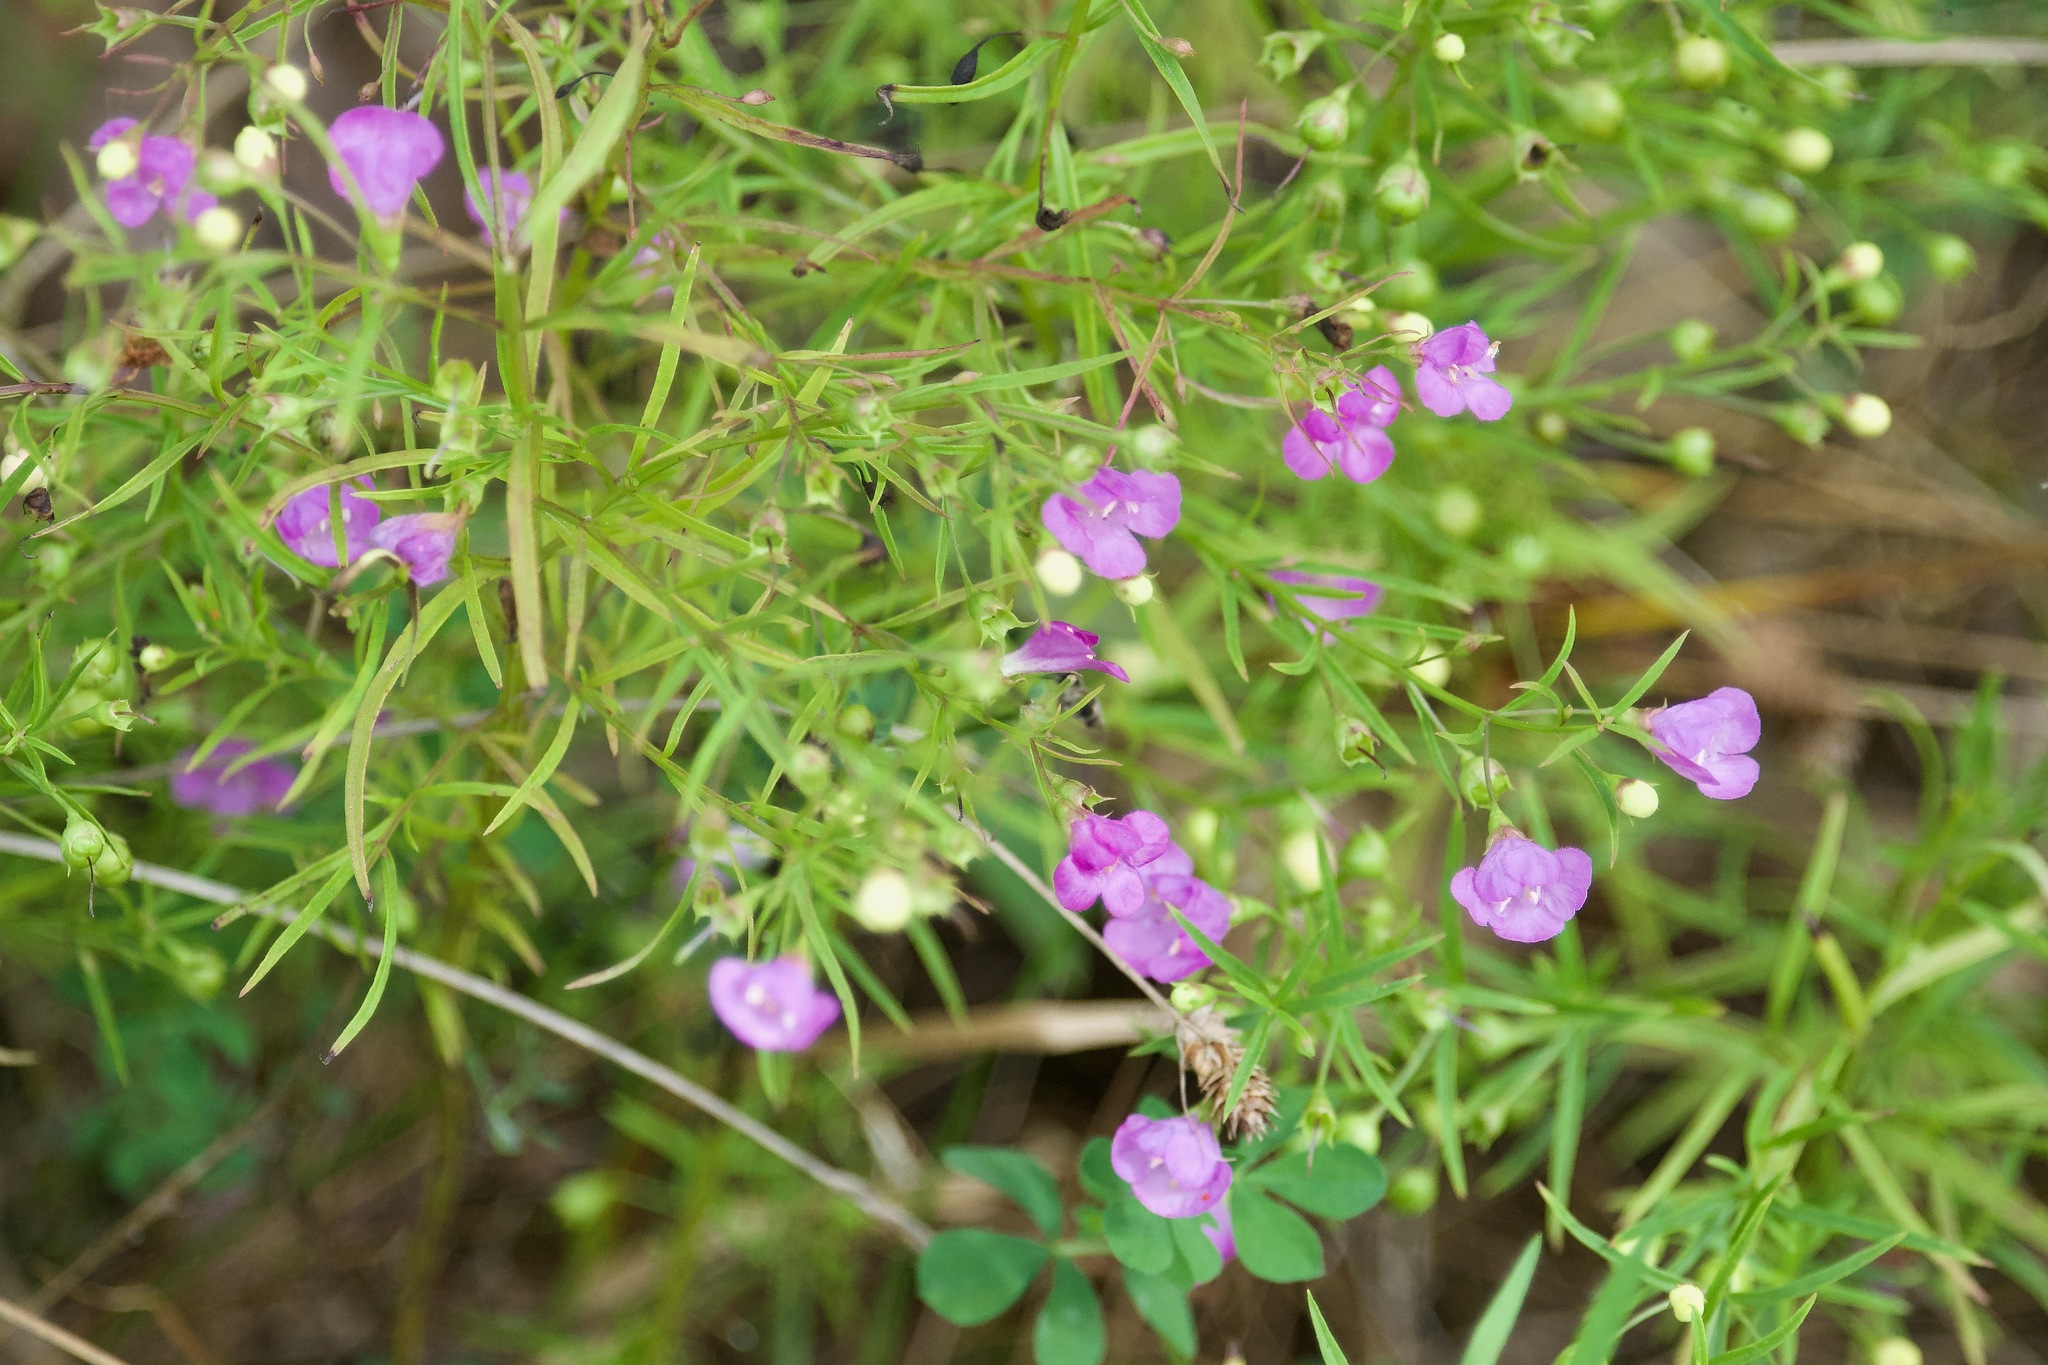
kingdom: Plantae
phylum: Tracheophyta
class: Magnoliopsida
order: Lamiales
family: Orobanchaceae
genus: Agalinis
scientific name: Agalinis tenuifolia
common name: Slender agalinis
